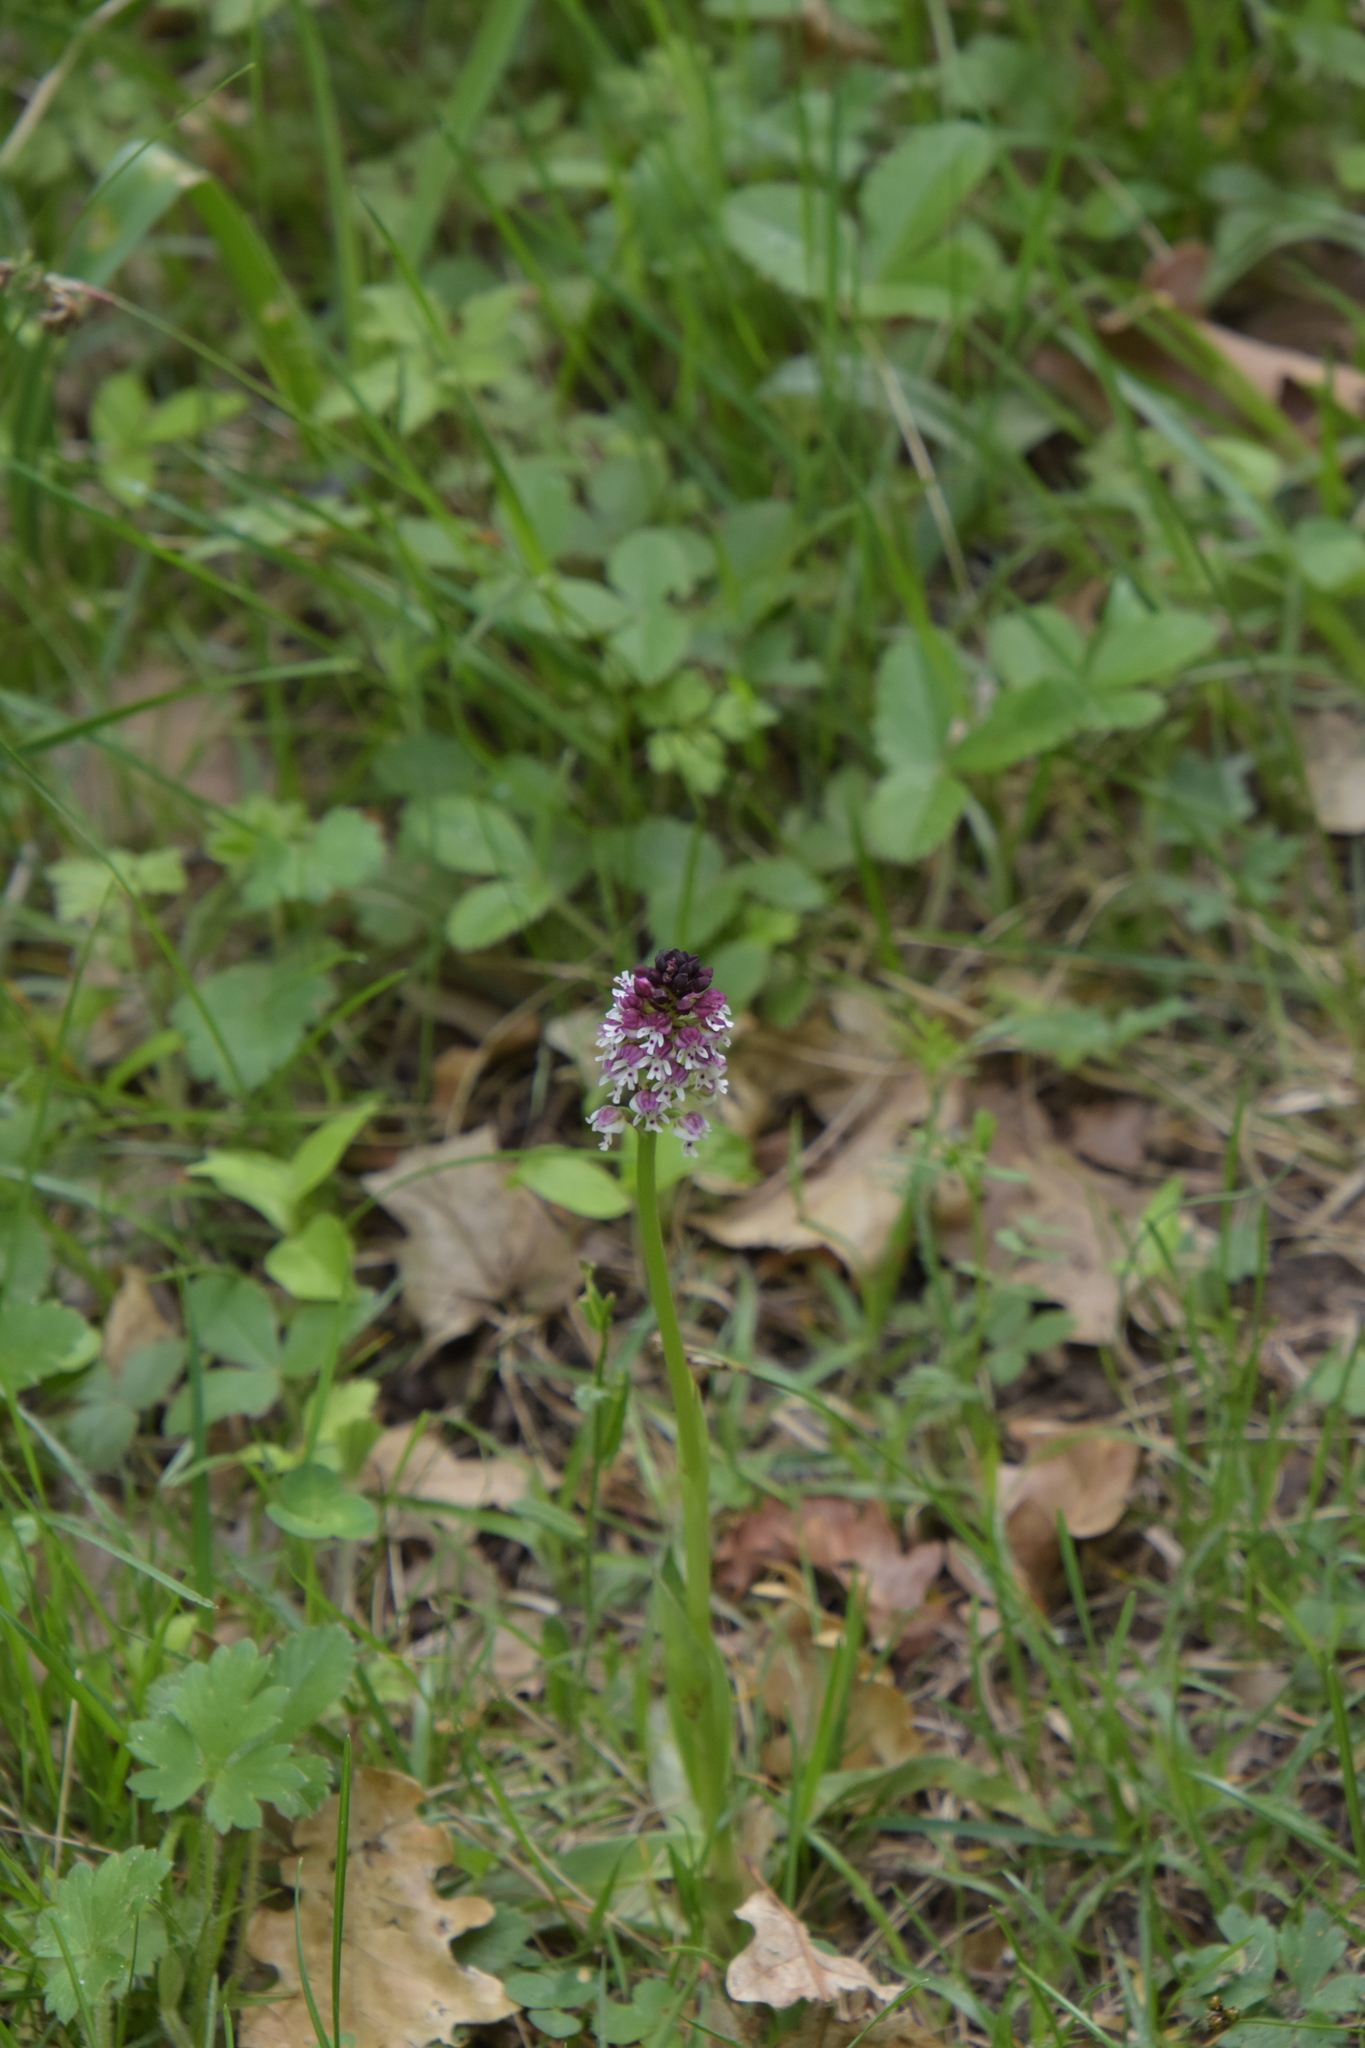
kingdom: Plantae
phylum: Tracheophyta
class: Liliopsida
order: Asparagales
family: Orchidaceae
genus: Neotinea
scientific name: Neotinea ustulata
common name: Burnt orchid
